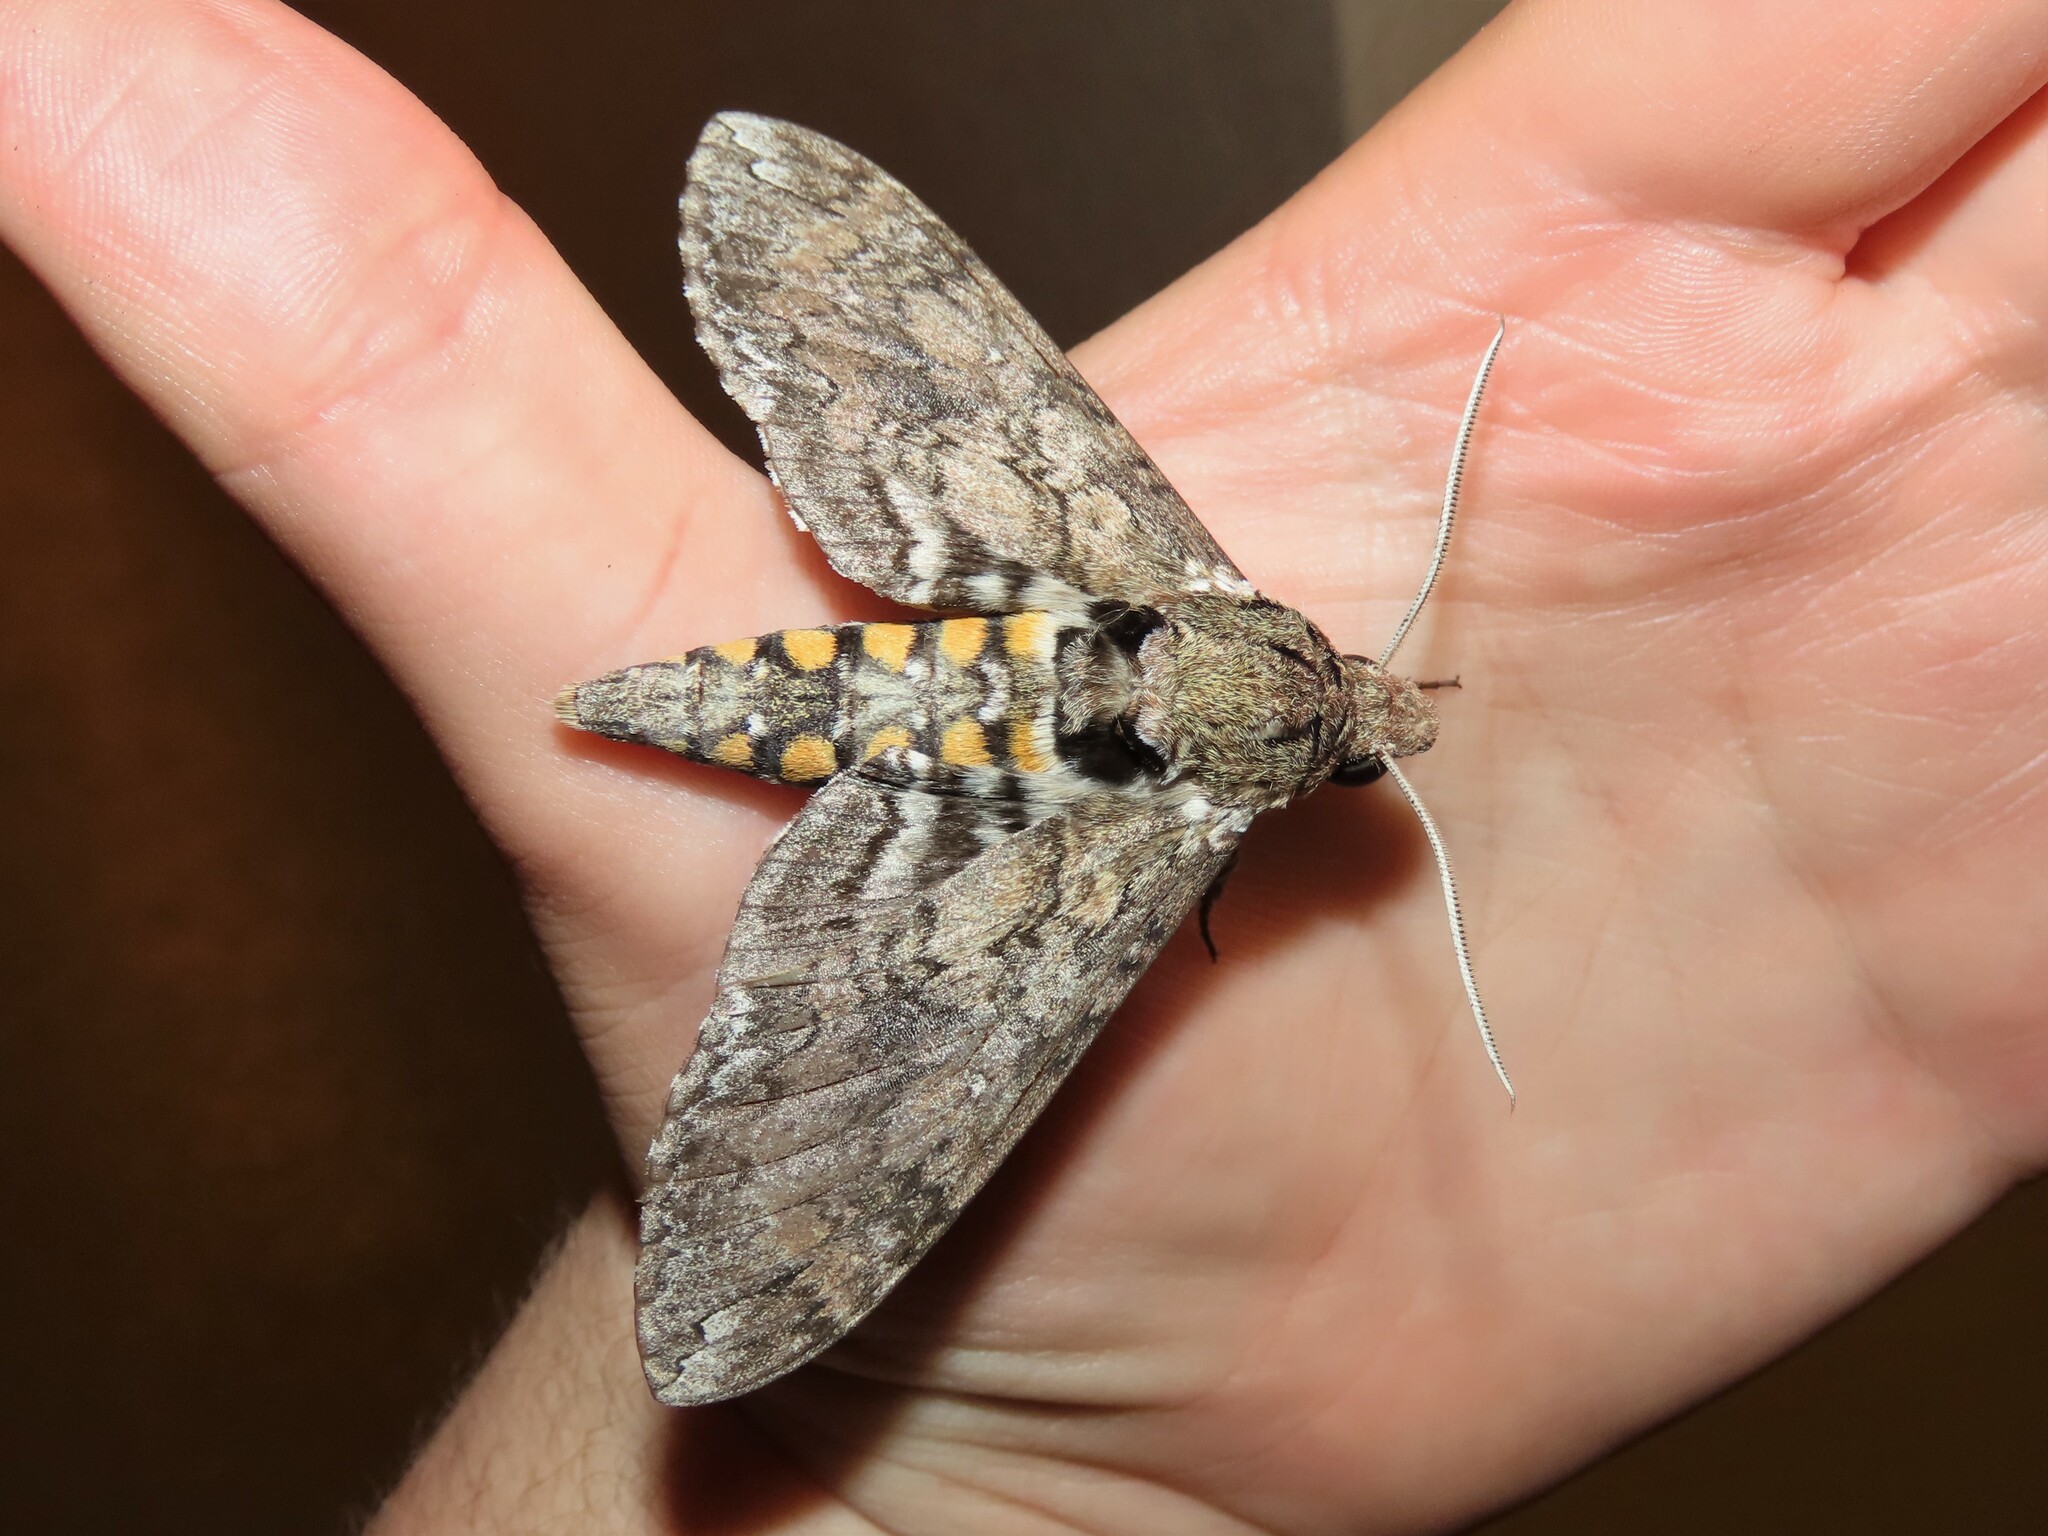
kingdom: Animalia
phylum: Arthropoda
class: Insecta
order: Lepidoptera
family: Sphingidae
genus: Manduca
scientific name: Manduca sexta
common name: Carolina sphinx
